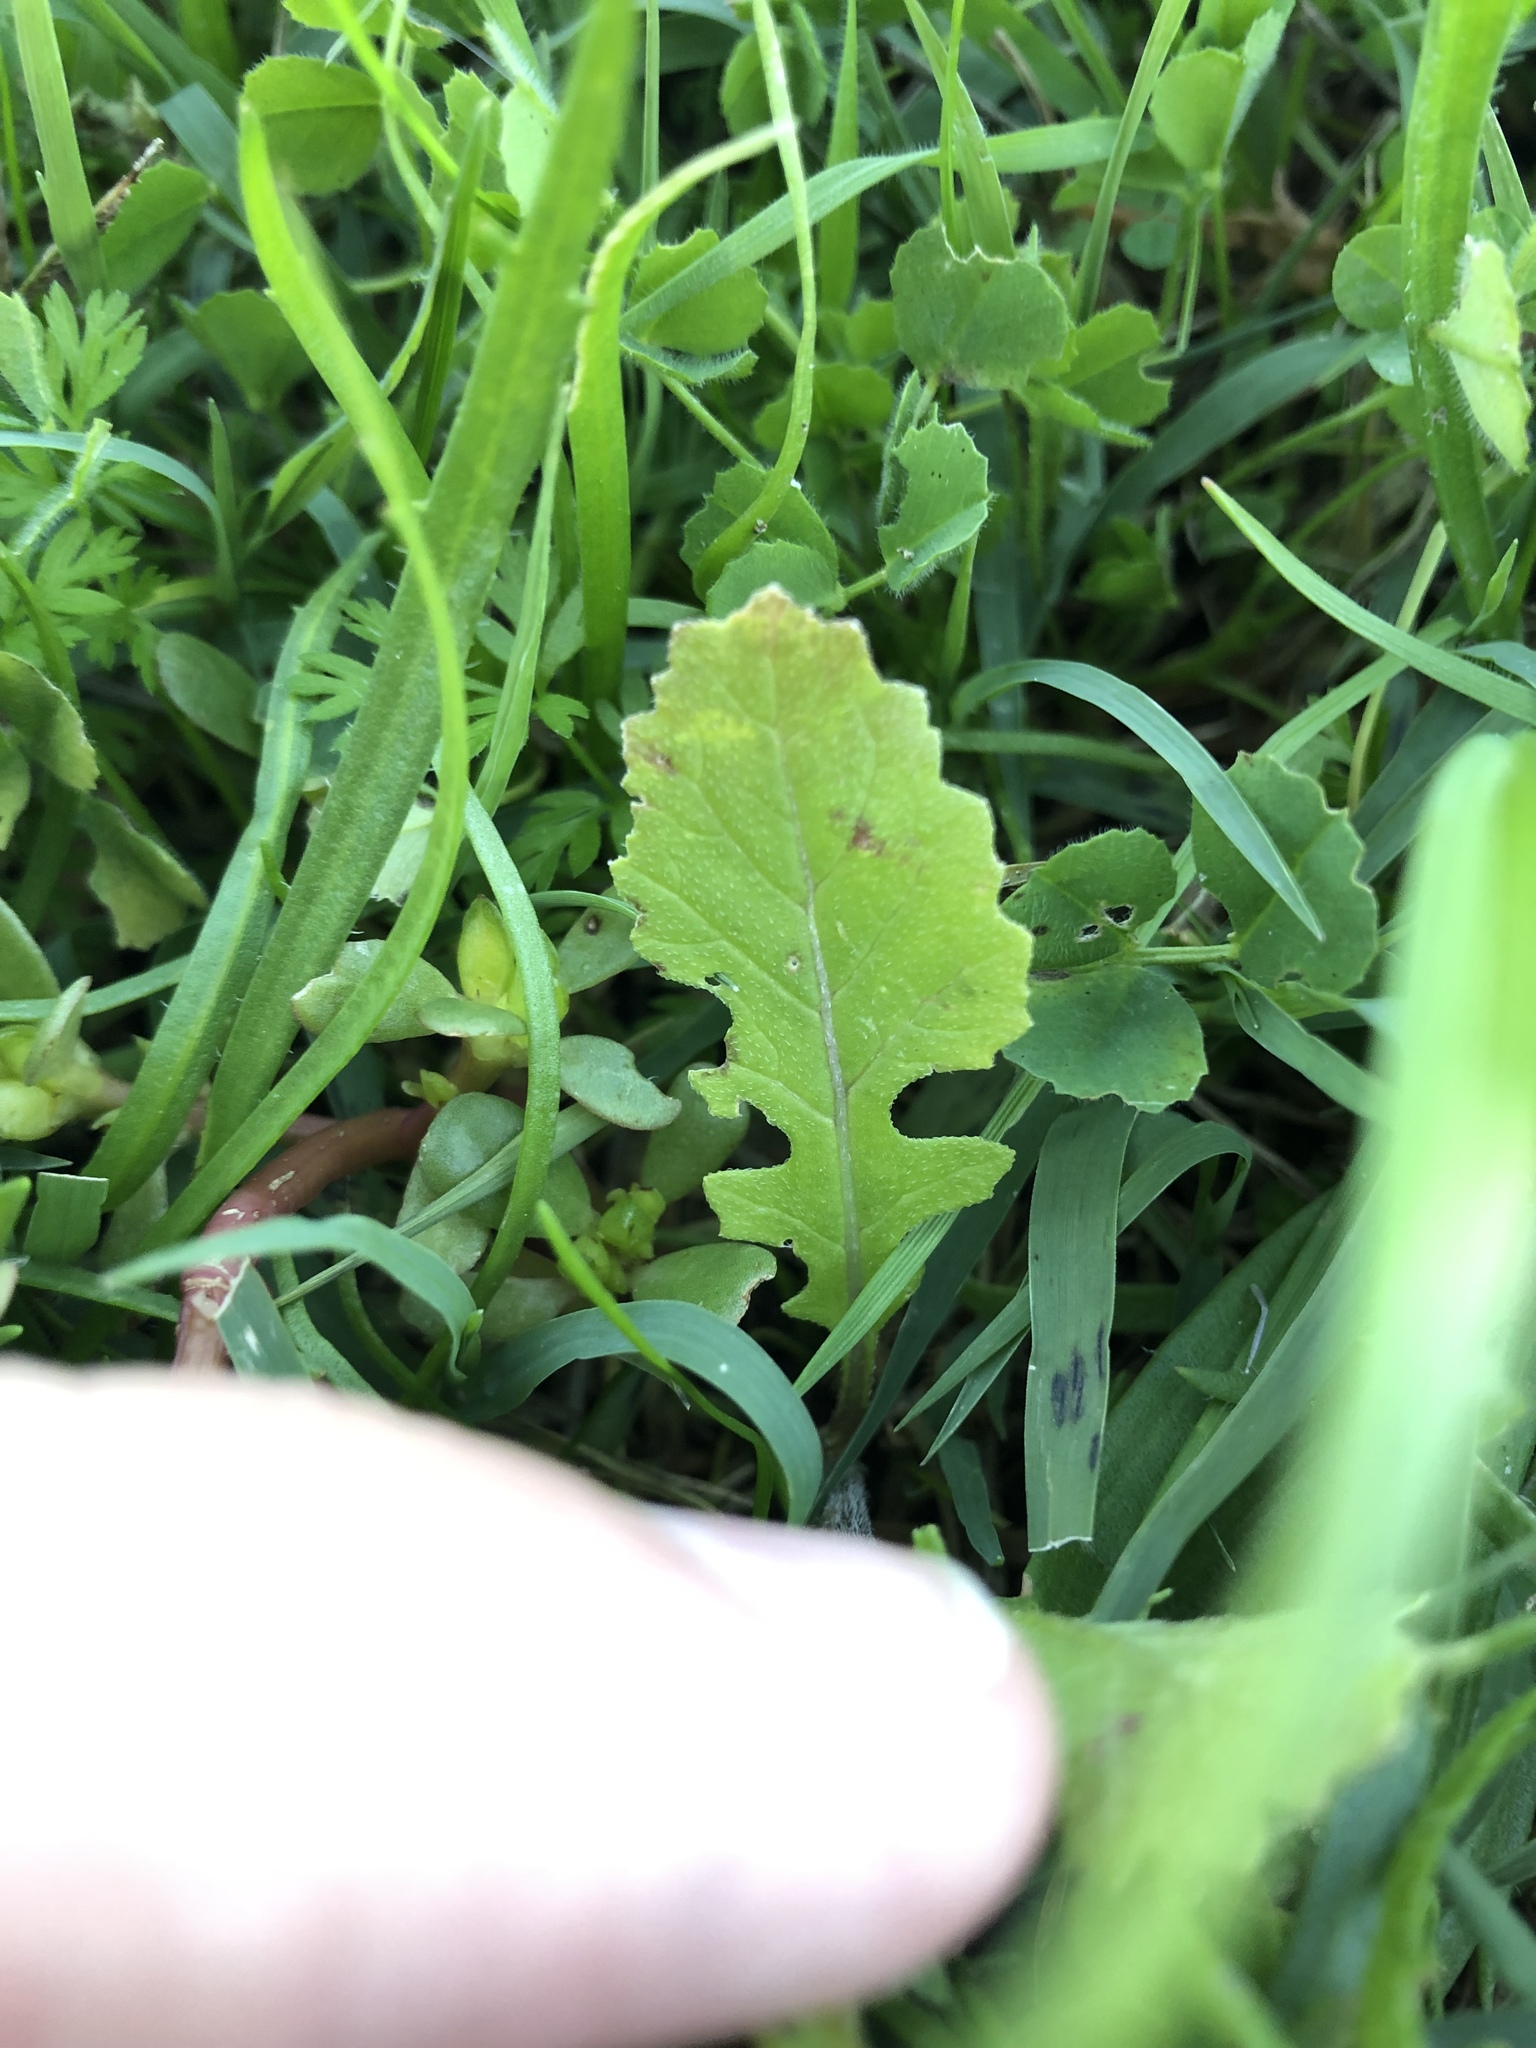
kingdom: Plantae
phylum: Tracheophyta
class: Magnoliopsida
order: Brassicales
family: Brassicaceae
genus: Diplotaxis
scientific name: Diplotaxis erucoides
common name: White rocket
